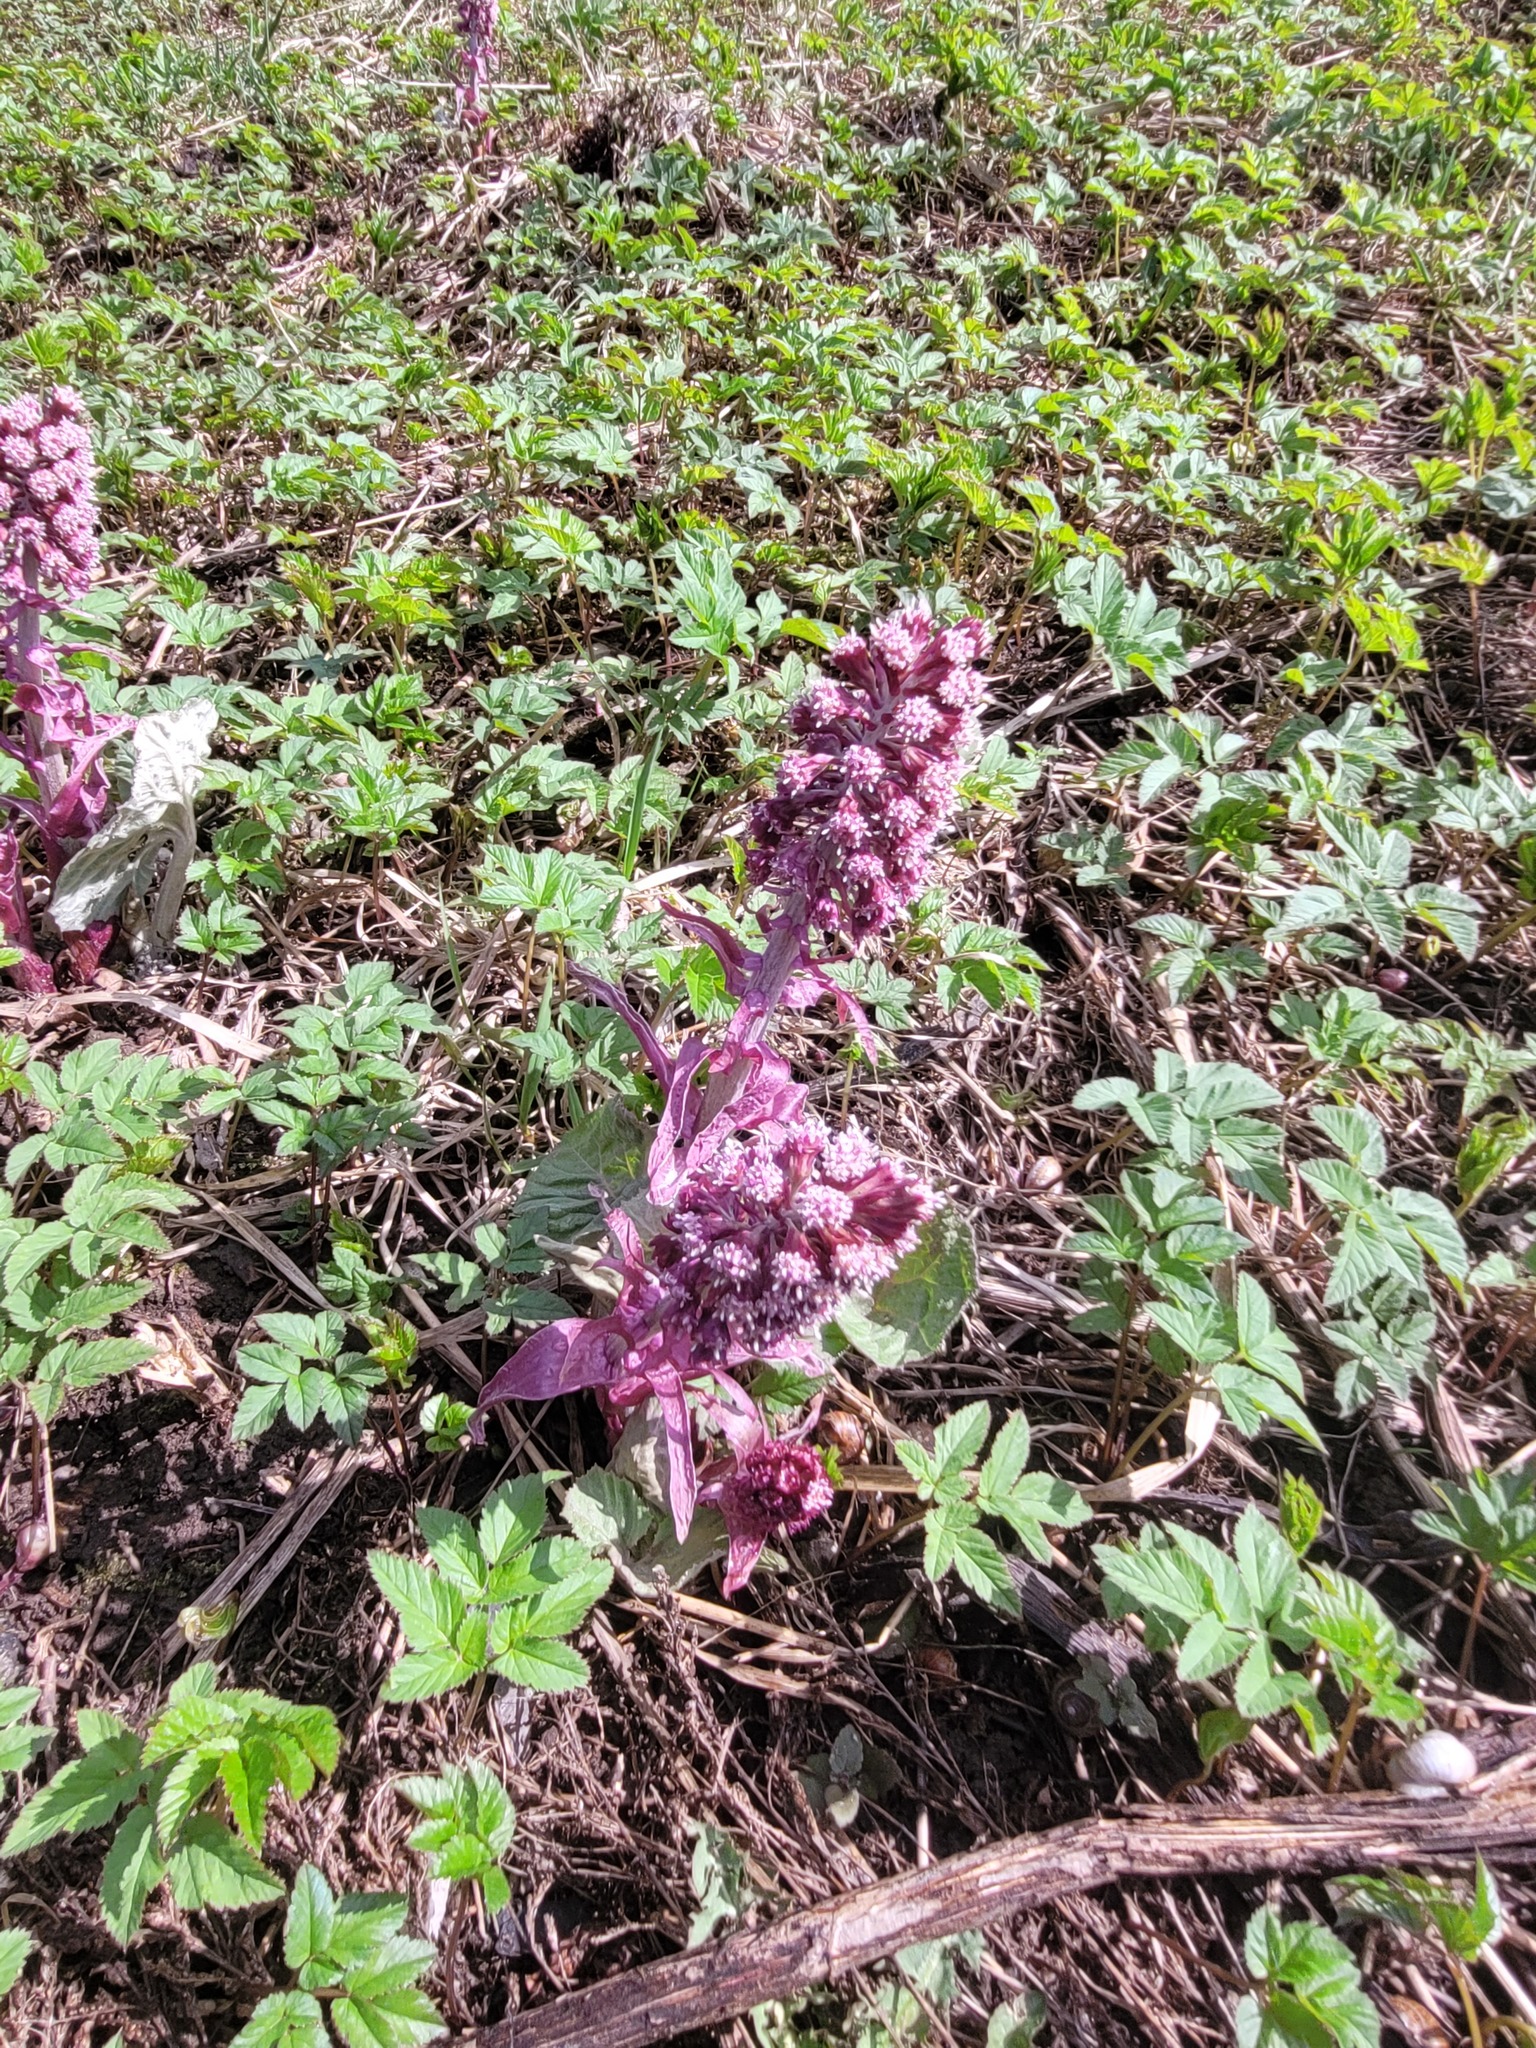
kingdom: Plantae
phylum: Tracheophyta
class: Magnoliopsida
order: Asterales
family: Asteraceae
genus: Petasites
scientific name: Petasites hybridus
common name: Butterbur
